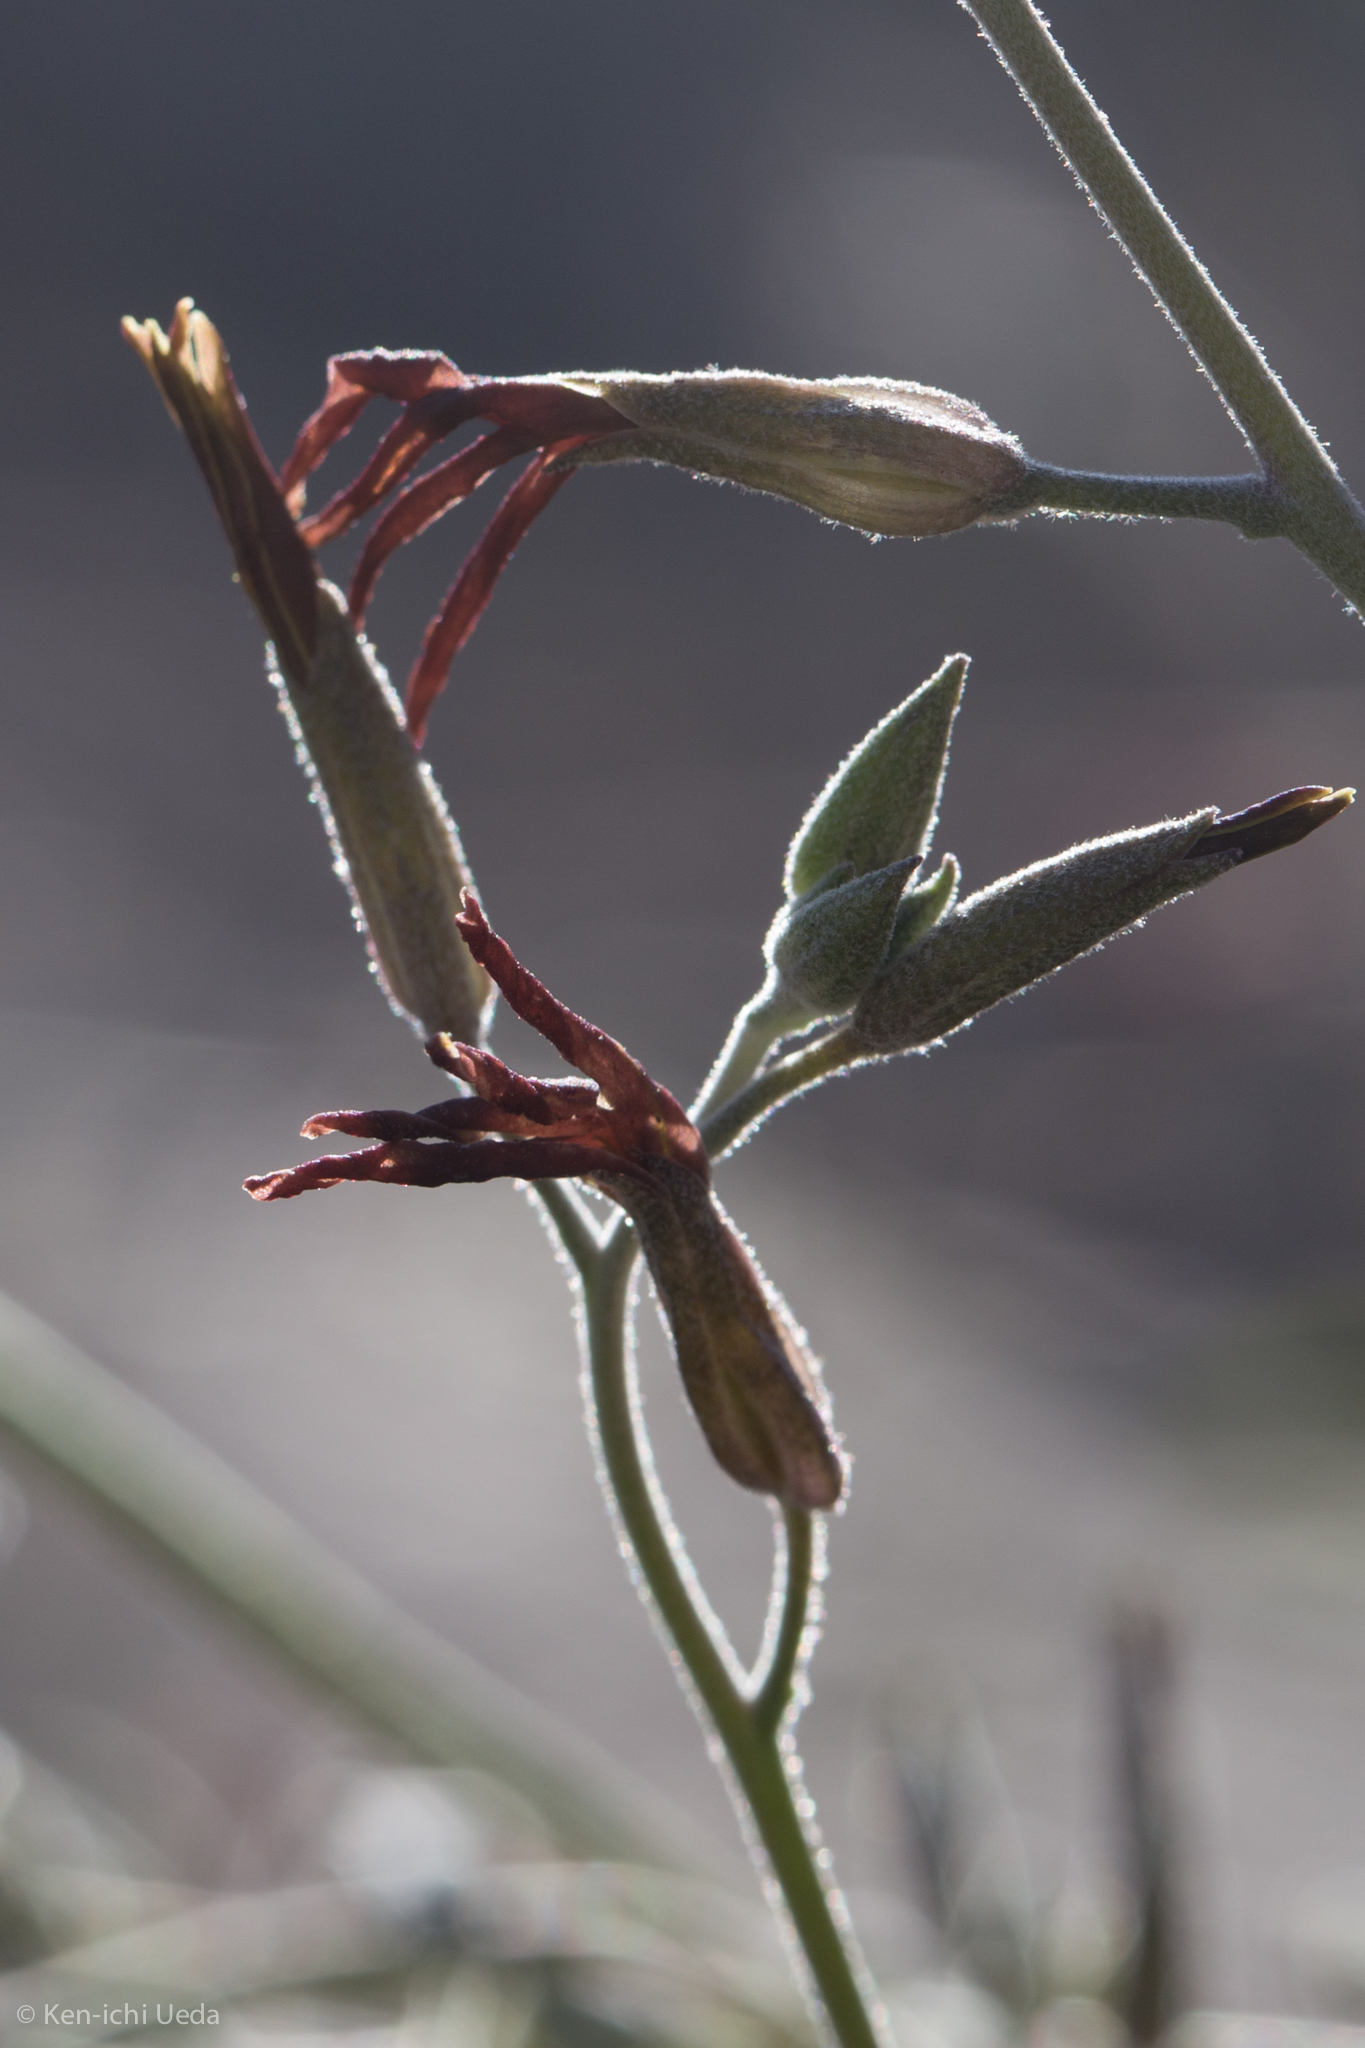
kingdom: Plantae
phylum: Tracheophyta
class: Magnoliopsida
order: Brassicales
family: Brassicaceae
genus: Lyrocarpa
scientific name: Lyrocarpa coulteri
